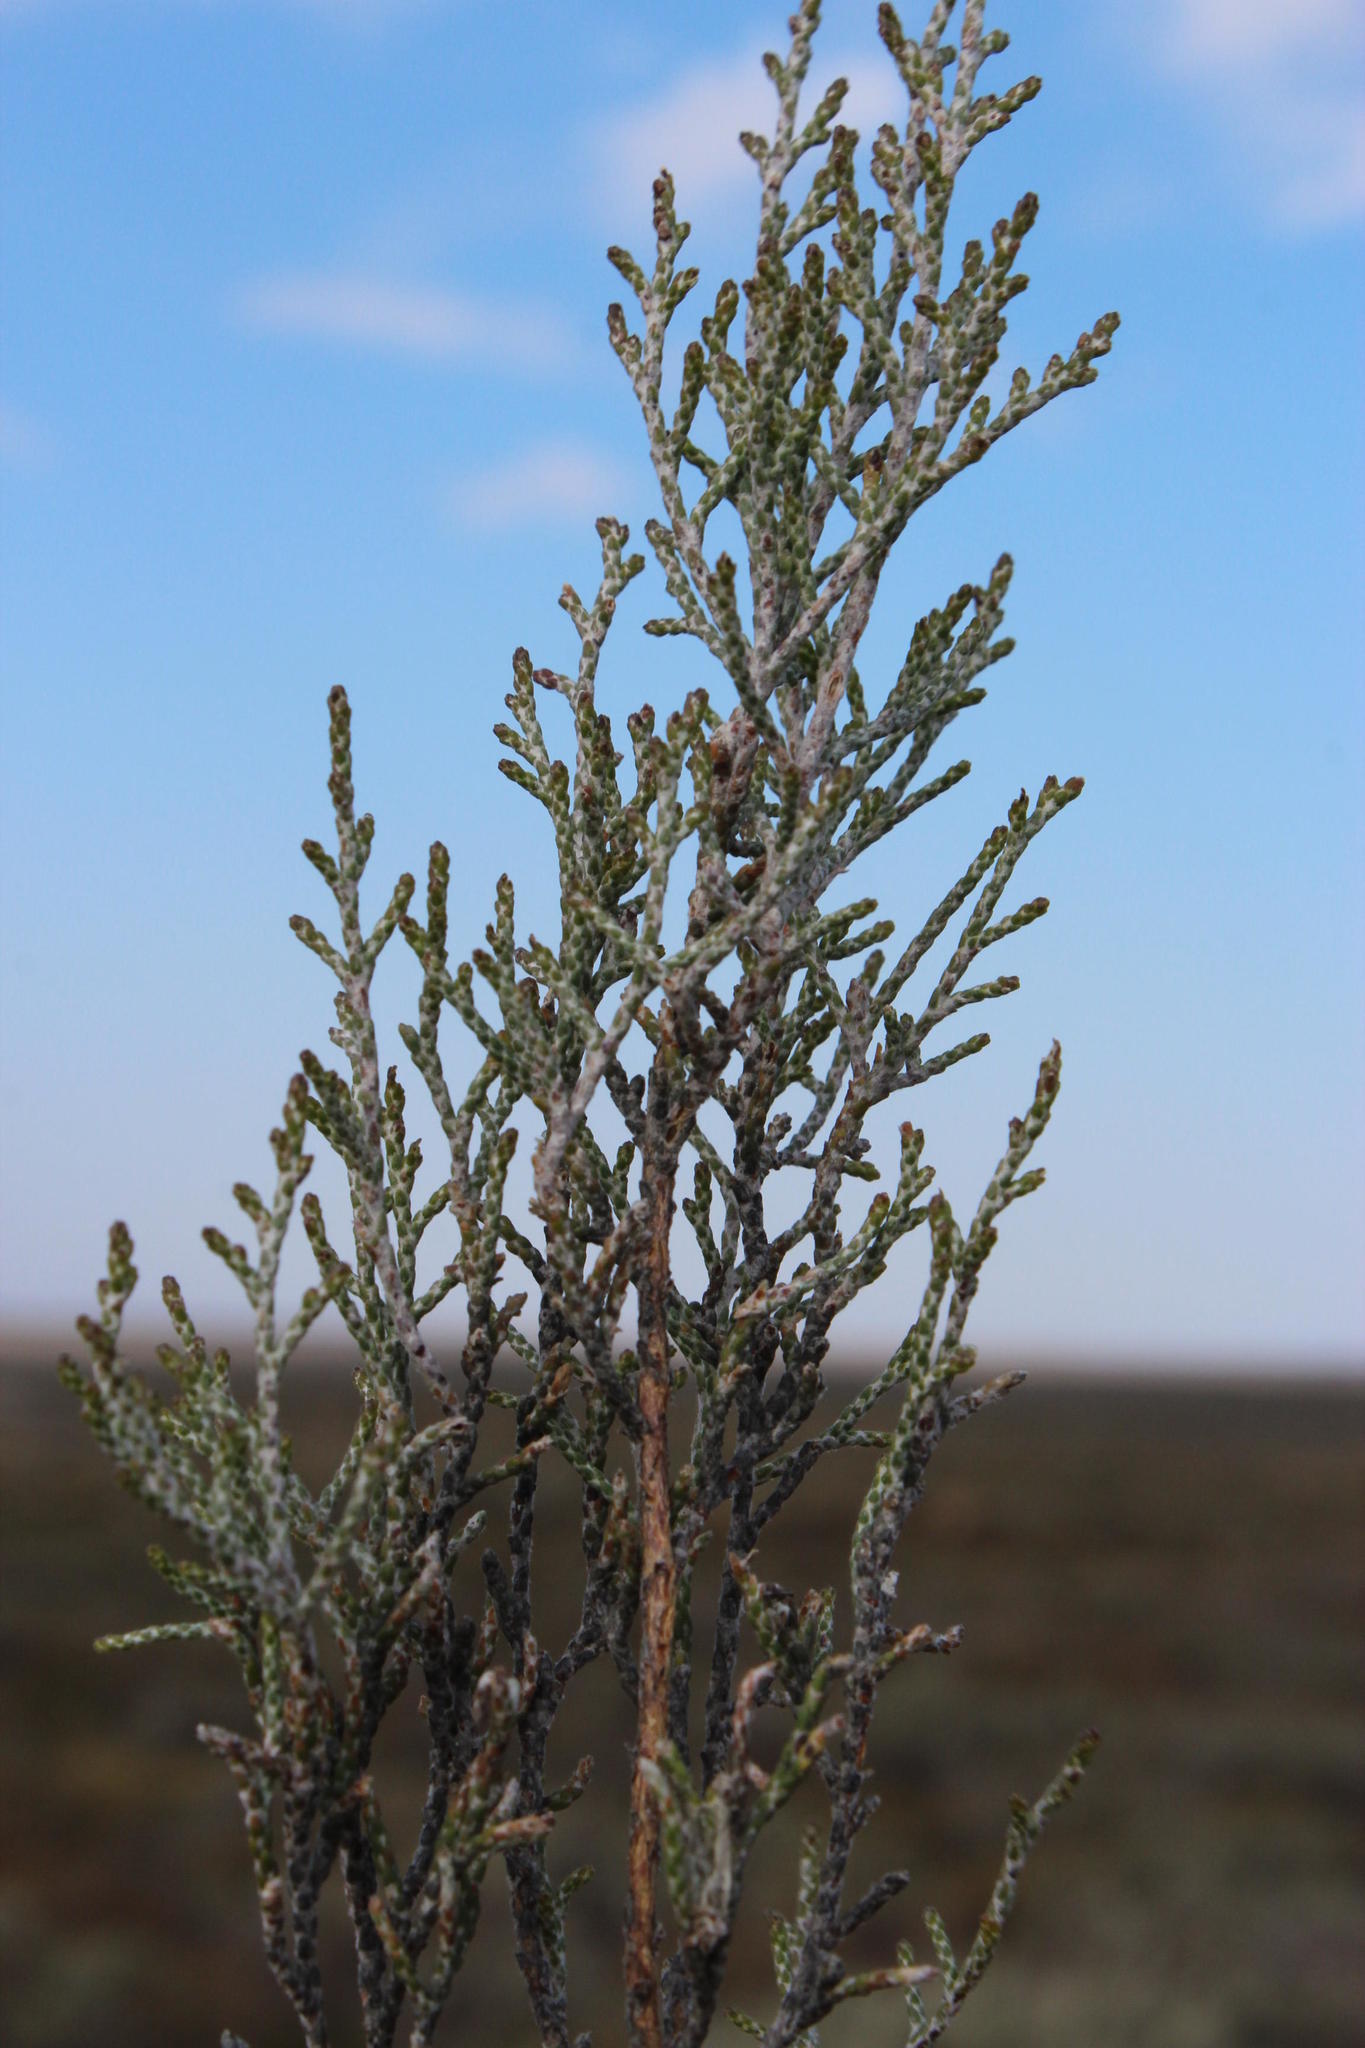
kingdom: Plantae
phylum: Tracheophyta
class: Magnoliopsida
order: Asterales
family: Asteraceae
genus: Dicerothamnus
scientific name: Dicerothamnus rhinocerotis
